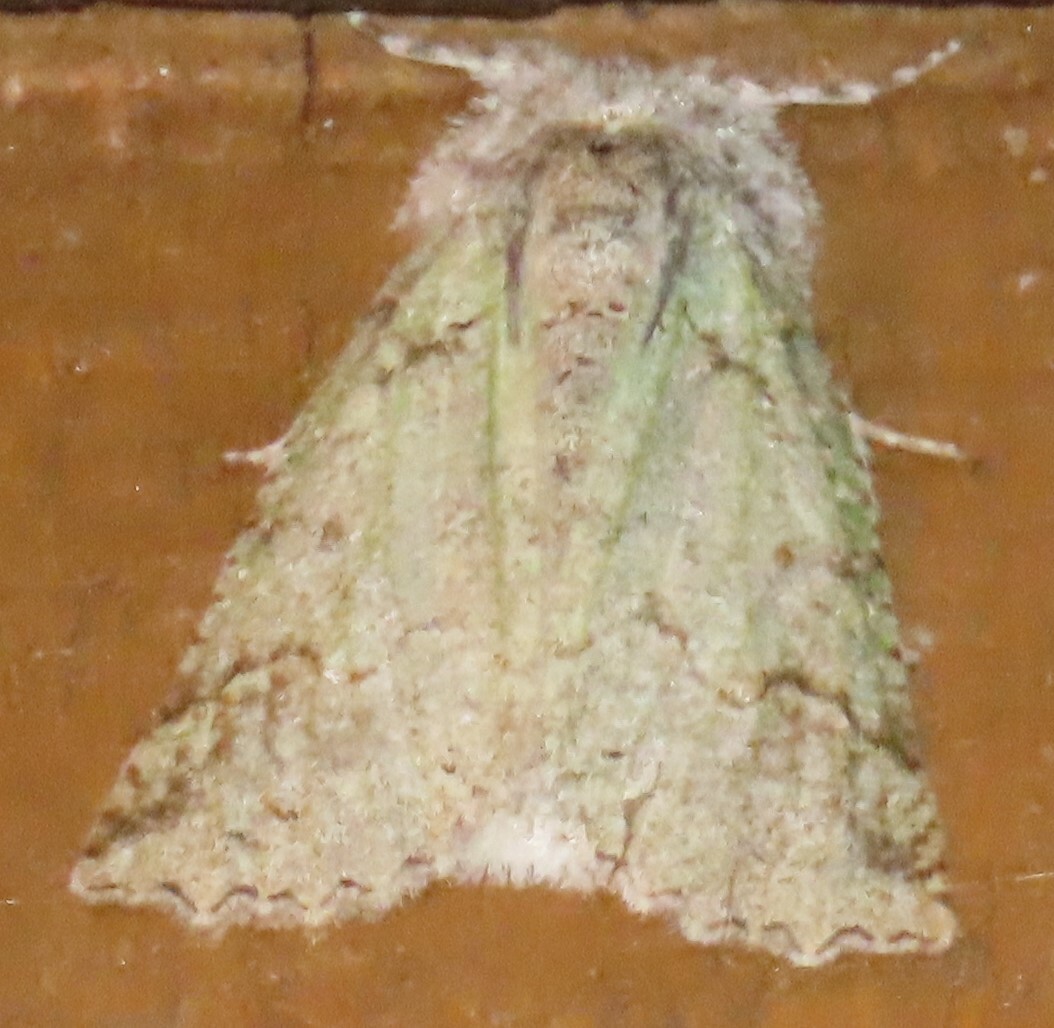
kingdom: Animalia
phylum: Arthropoda
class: Insecta
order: Lepidoptera
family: Geometridae
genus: Declana
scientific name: Declana floccosa
